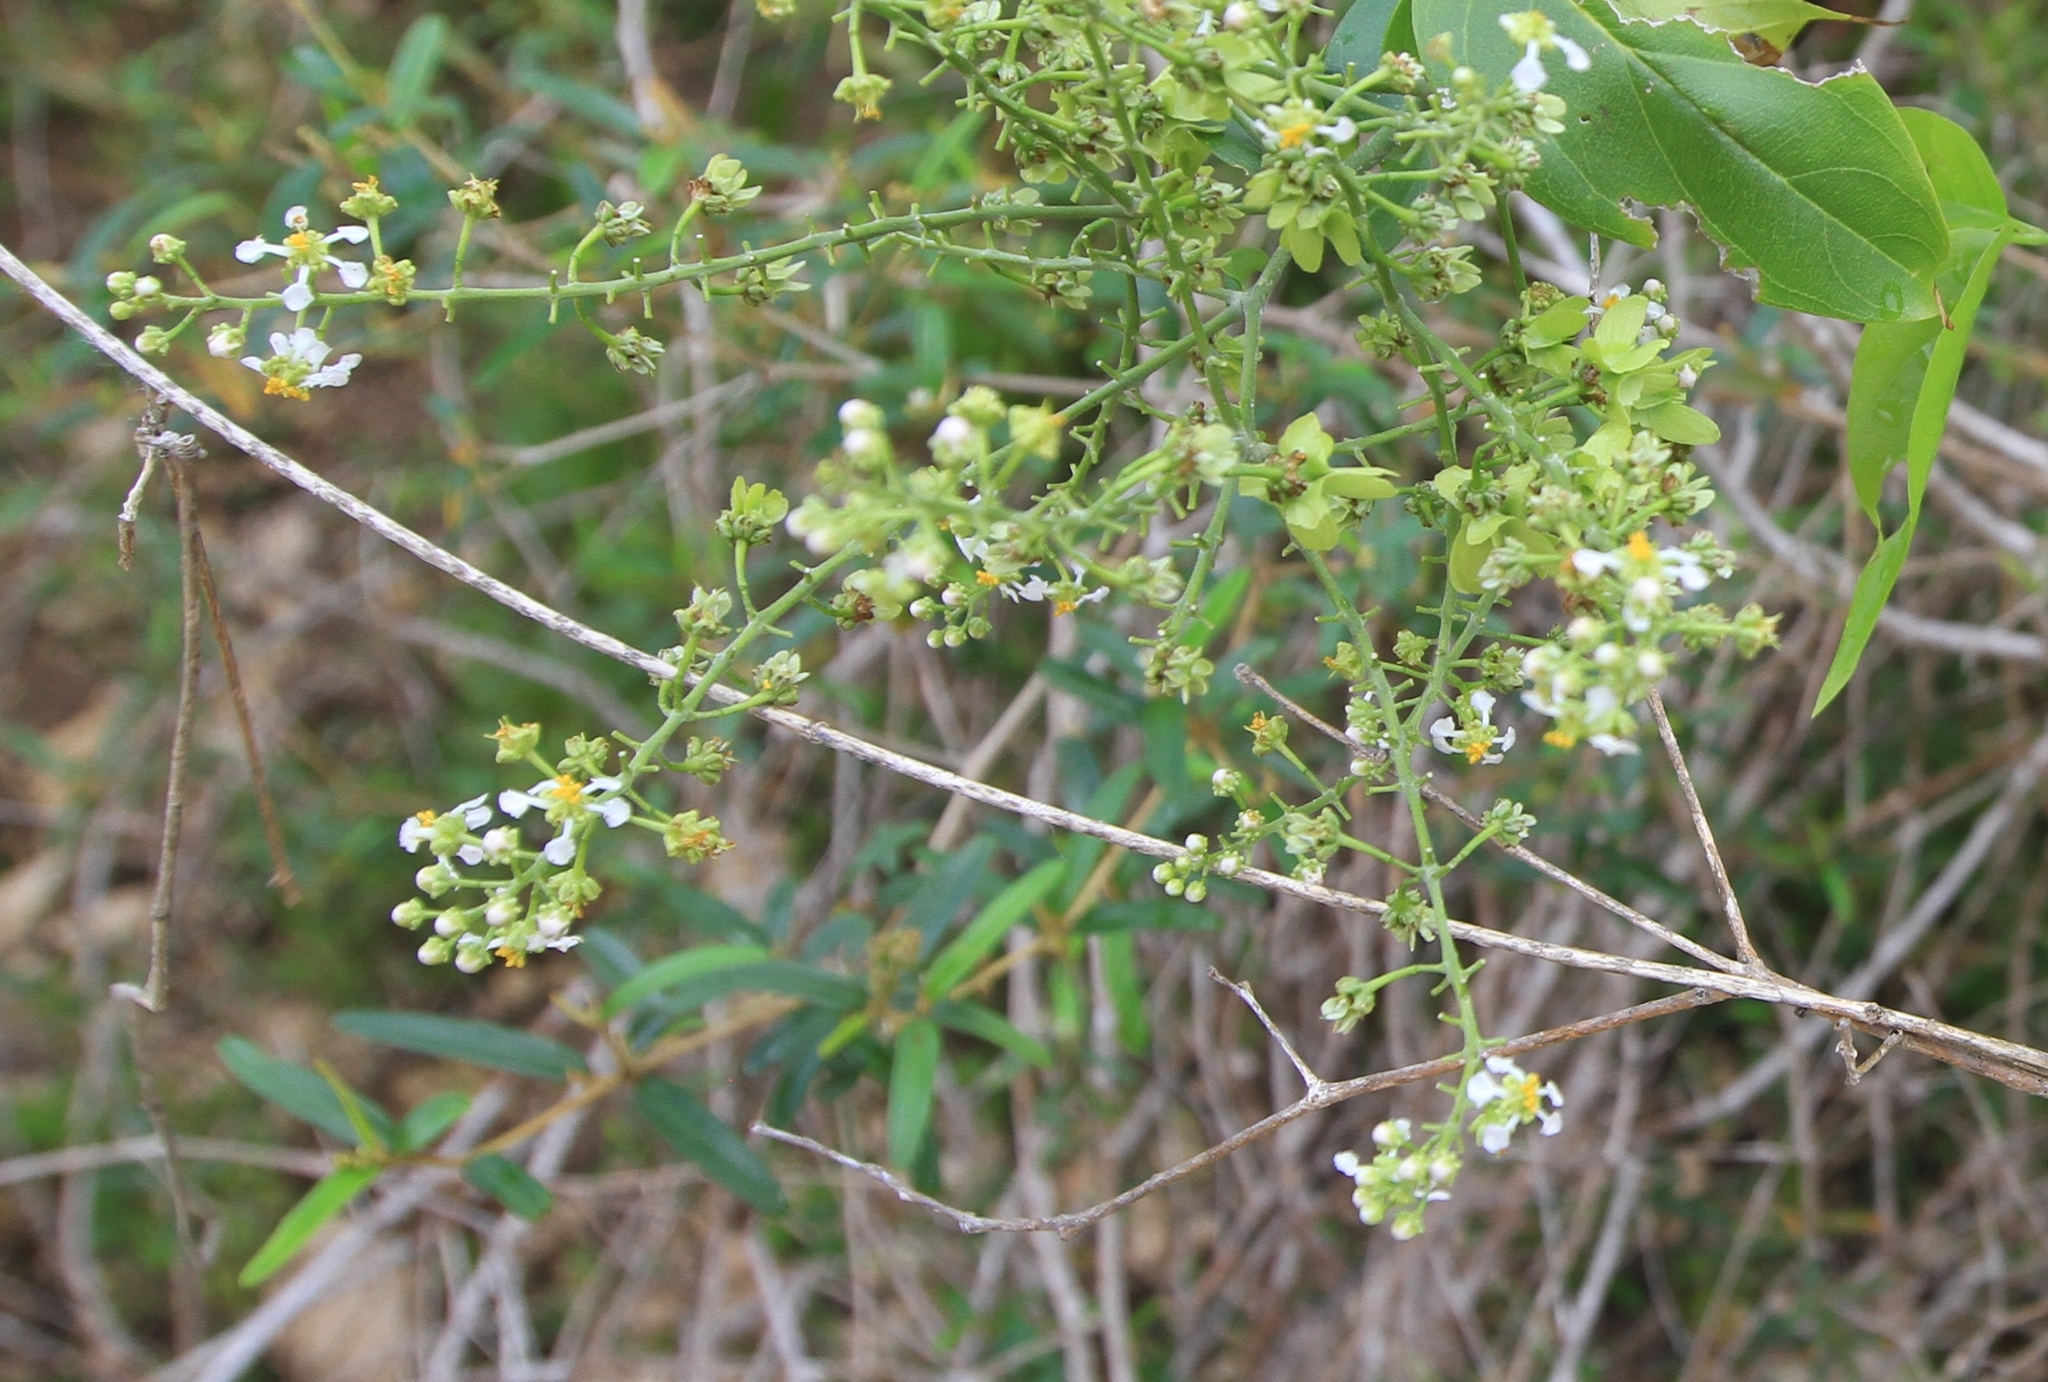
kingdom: Plantae
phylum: Tracheophyta
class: Magnoliopsida
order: Malpighiales
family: Malpighiaceae
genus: Mascagnia
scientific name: Mascagnia lucida
